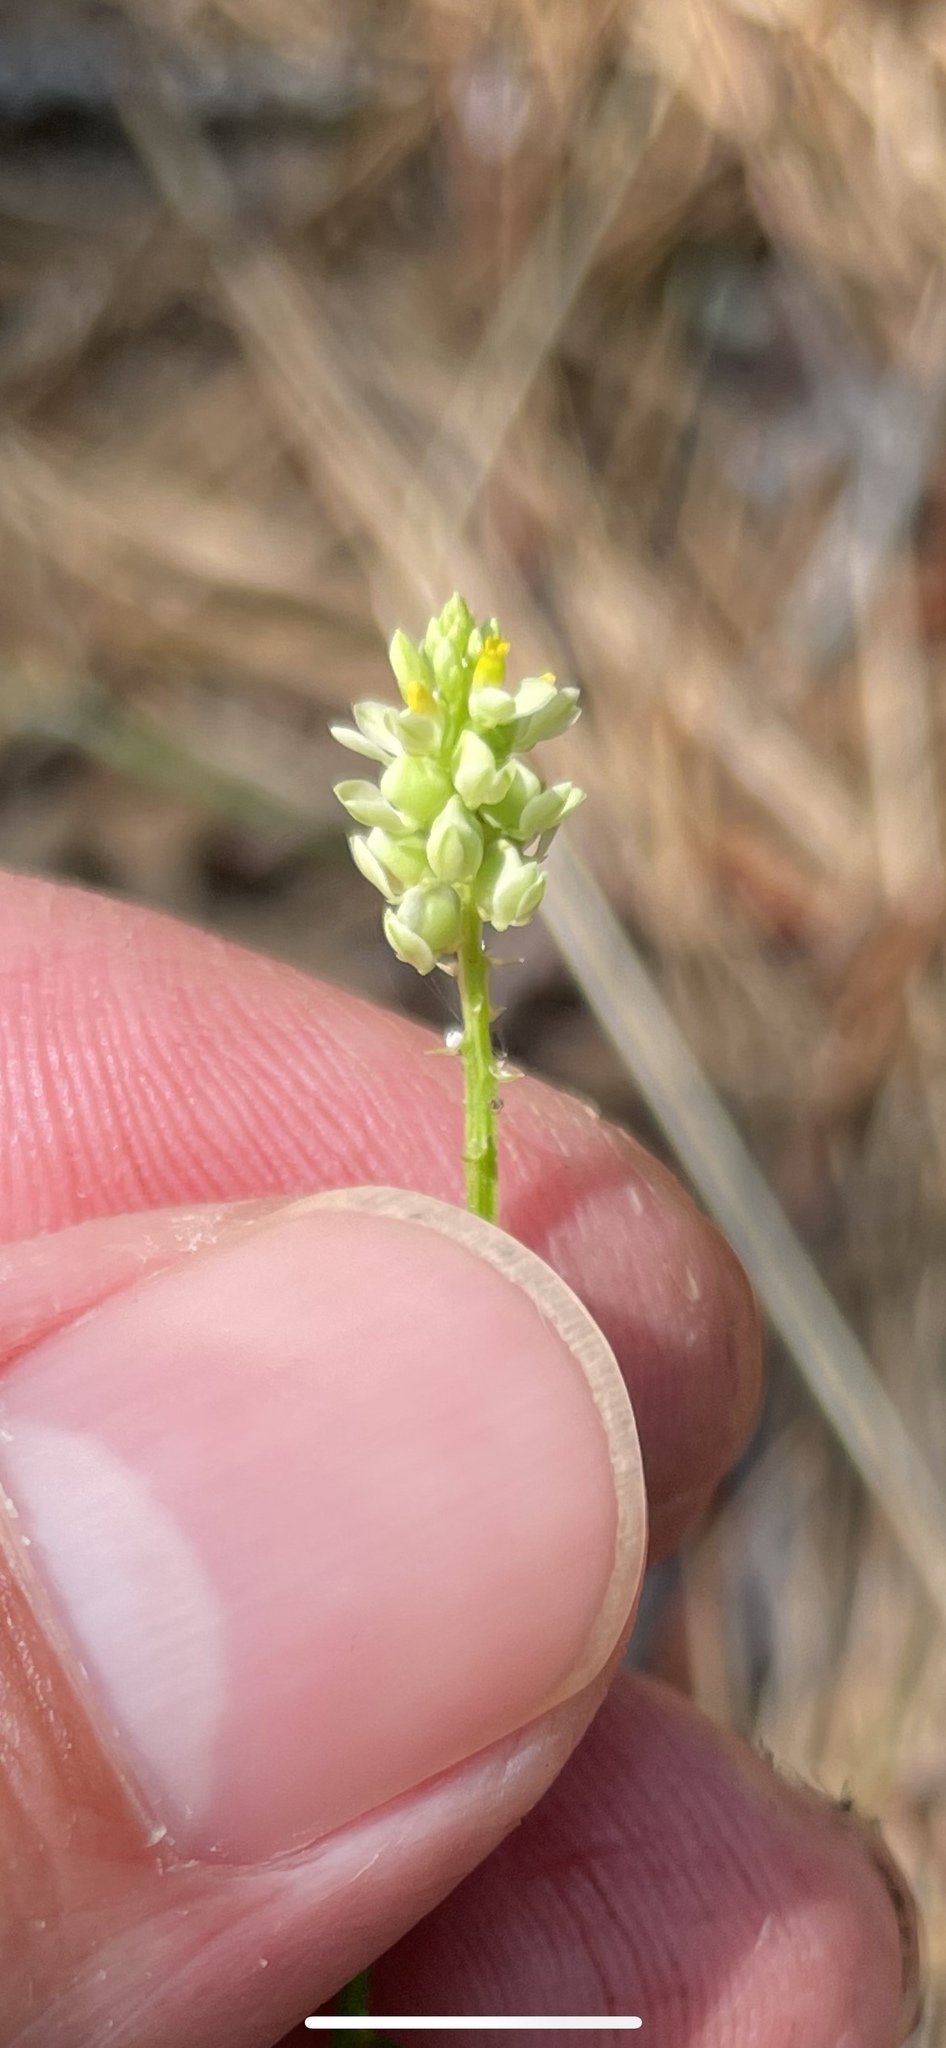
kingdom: Plantae
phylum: Tracheophyta
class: Magnoliopsida
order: Fabales
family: Polygalaceae
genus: Polygala
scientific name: Polygala nuttallii
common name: Nuttall's milkwort
